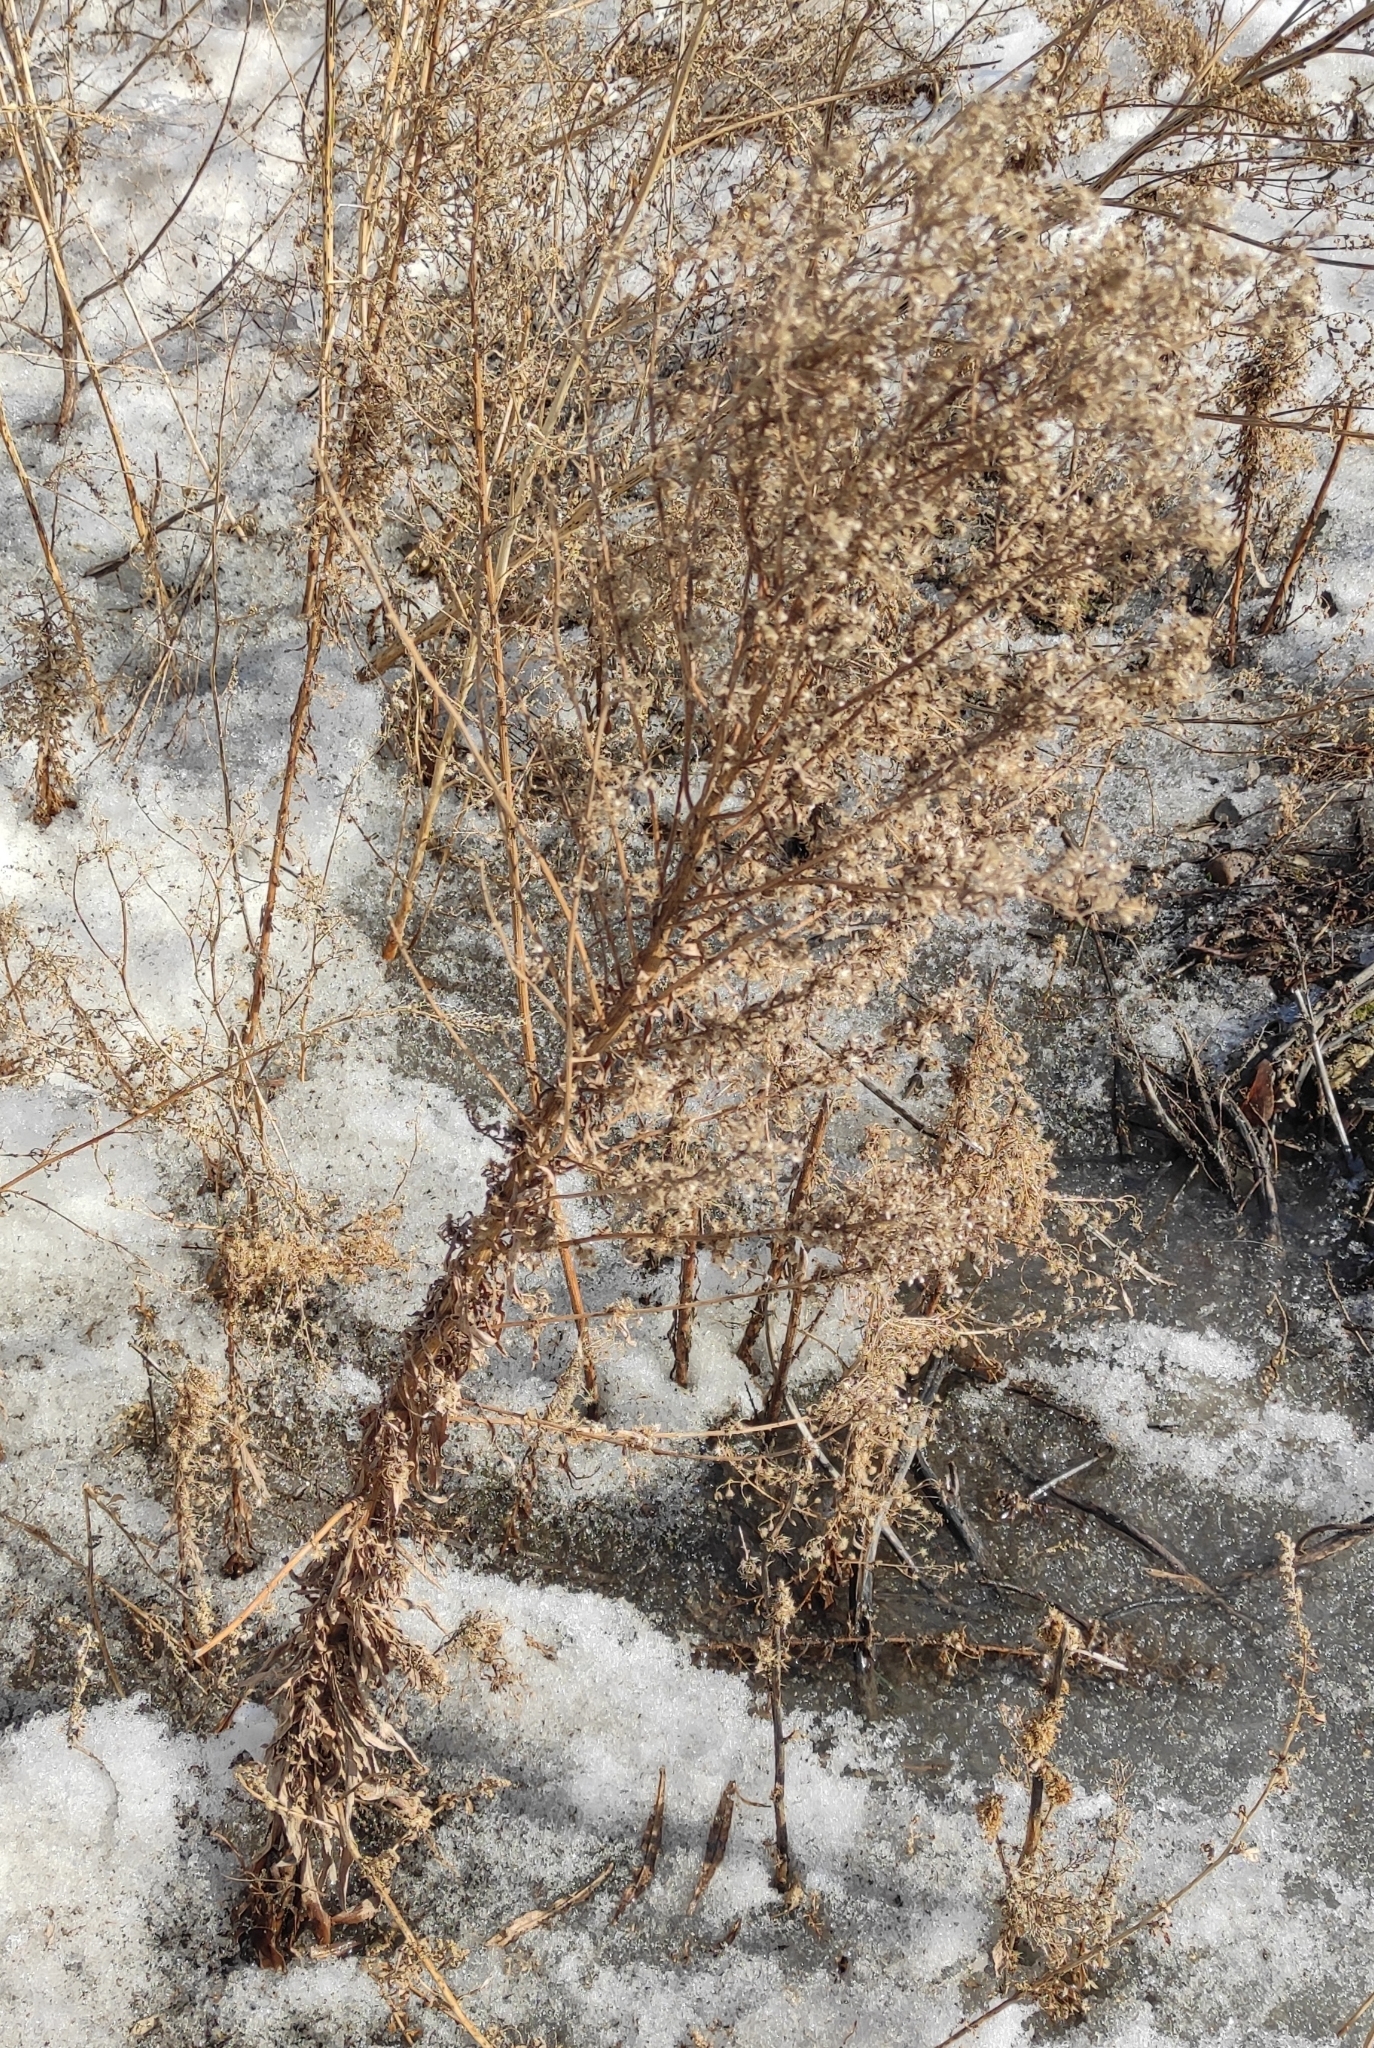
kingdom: Plantae
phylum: Tracheophyta
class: Magnoliopsida
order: Asterales
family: Asteraceae
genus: Erigeron
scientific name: Erigeron canadensis
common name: Canadian fleabane
